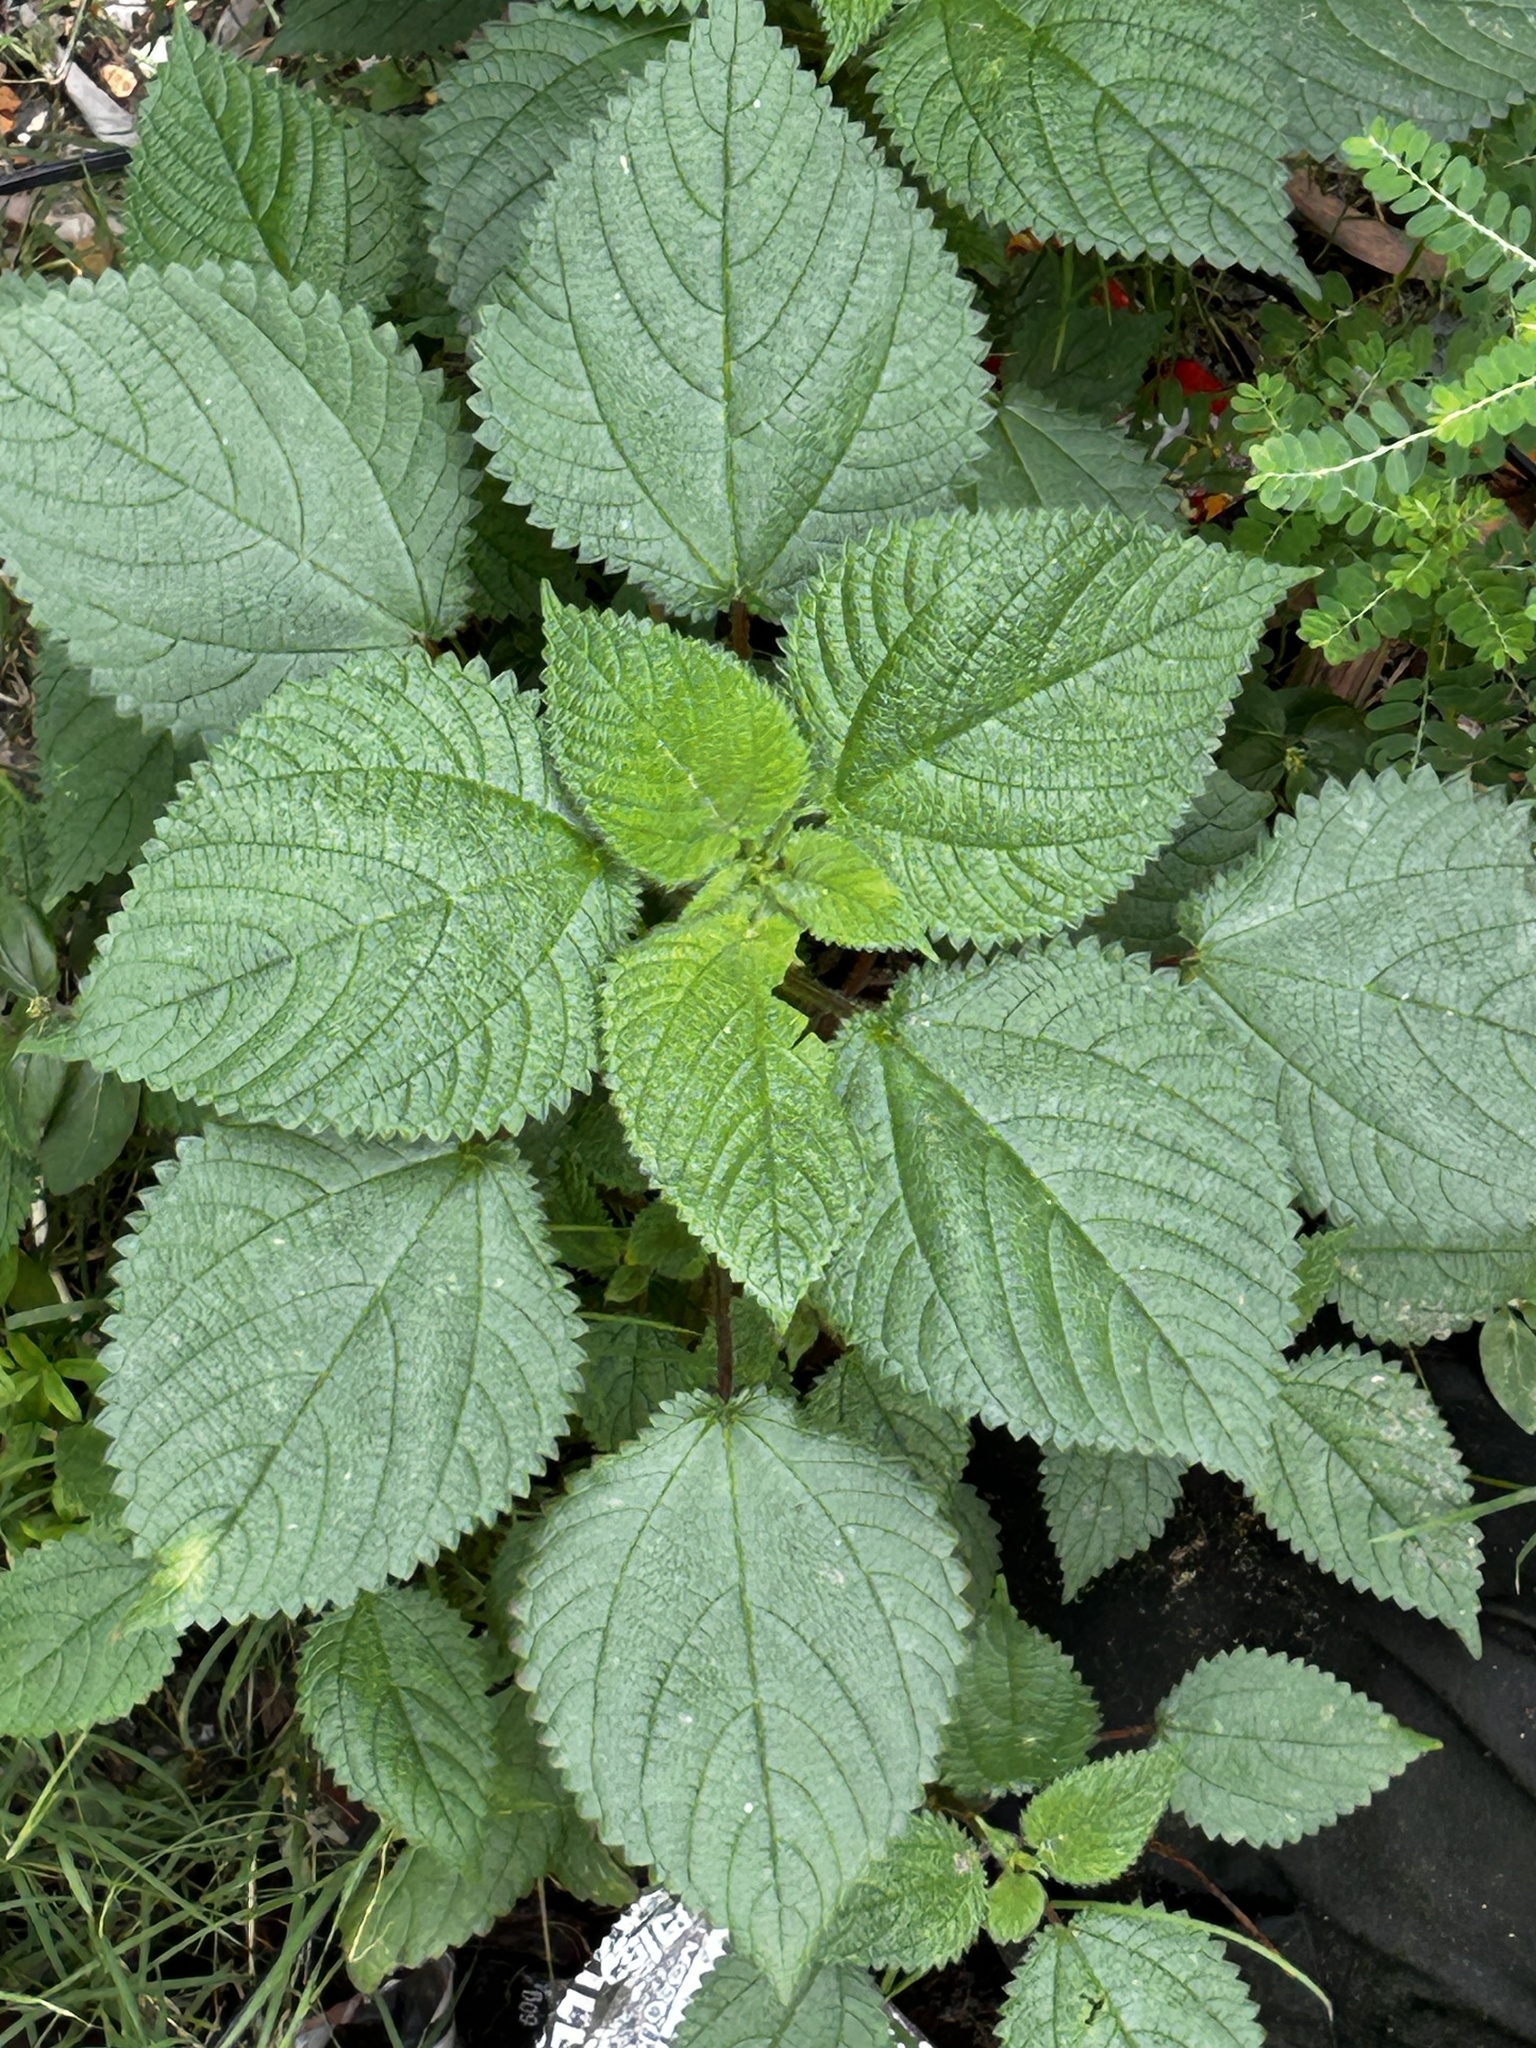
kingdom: Plantae
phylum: Tracheophyta
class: Magnoliopsida
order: Rosales
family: Urticaceae
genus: Laportea
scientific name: Laportea aestuans
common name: West indian woodnettle
